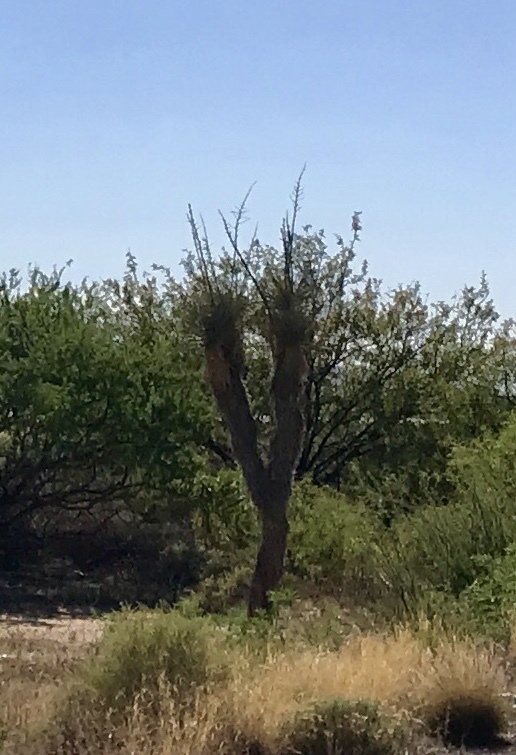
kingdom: Plantae
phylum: Tracheophyta
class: Liliopsida
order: Asparagales
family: Asparagaceae
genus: Yucca
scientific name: Yucca elata
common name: Palmella
